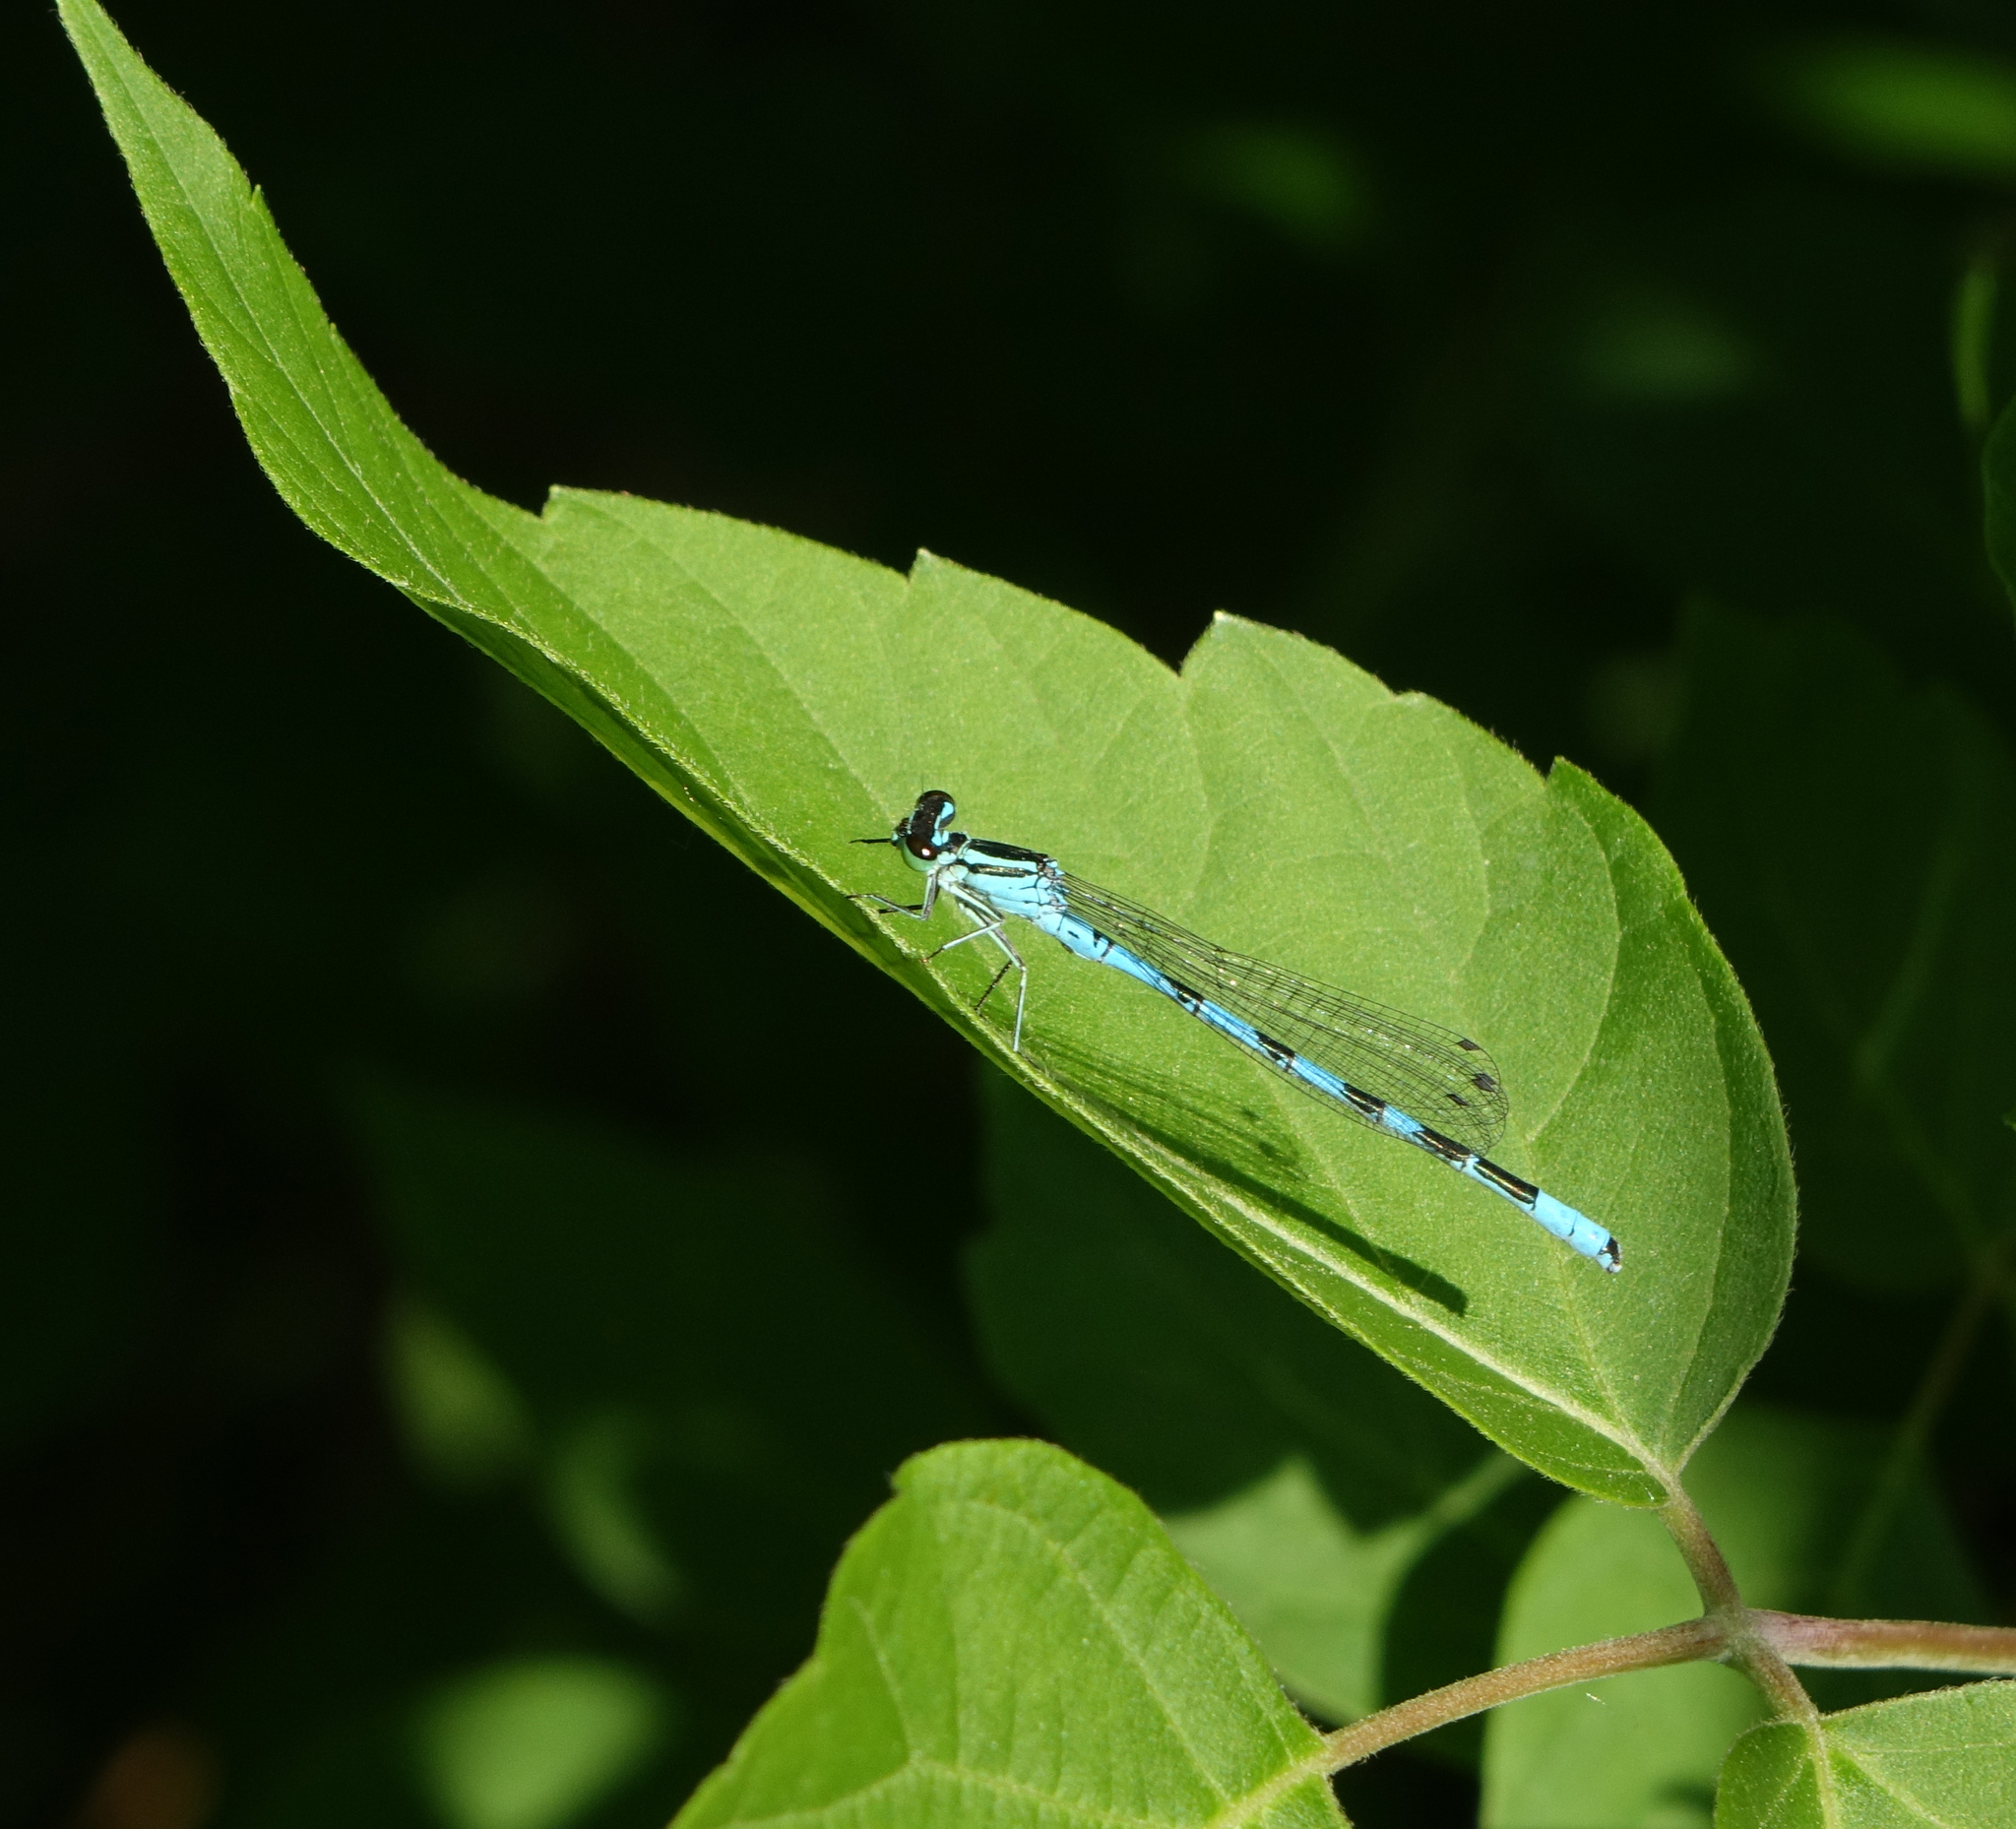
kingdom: Animalia
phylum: Arthropoda
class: Insecta
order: Odonata
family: Coenagrionidae
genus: Coenagrion
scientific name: Coenagrion hastulatum
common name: Spearhead bluet
